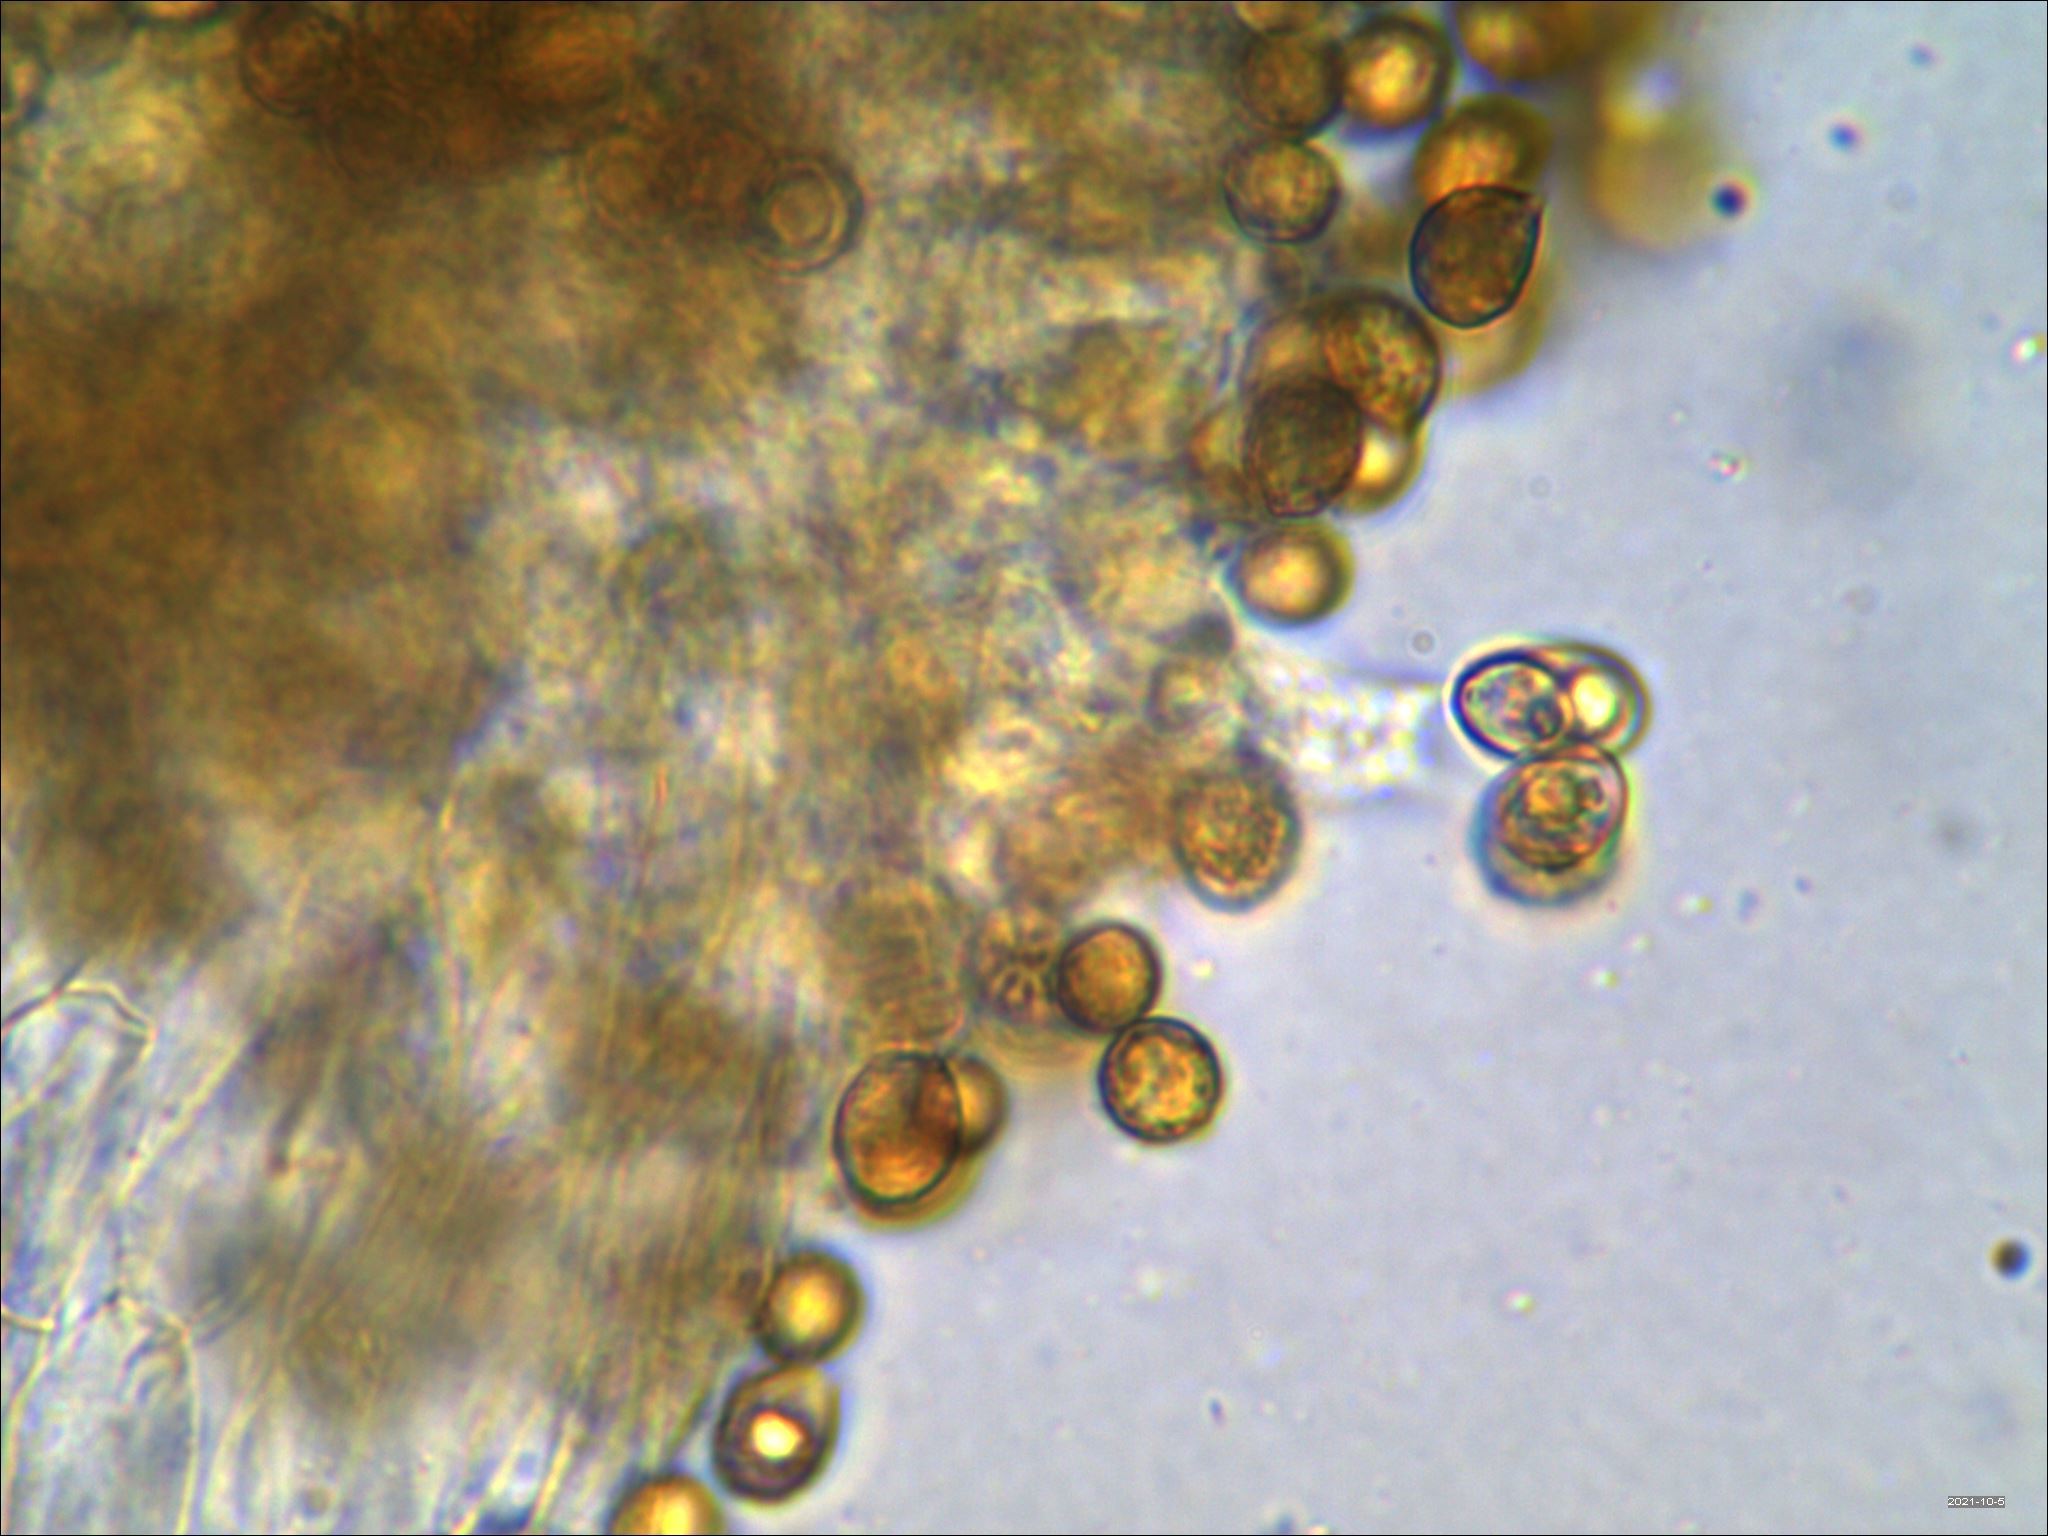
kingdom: Fungi
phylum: Basidiomycota
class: Agaricomycetes
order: Agaricales
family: Cortinariaceae
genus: Cortinarius
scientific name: Cortinarius anocorium
